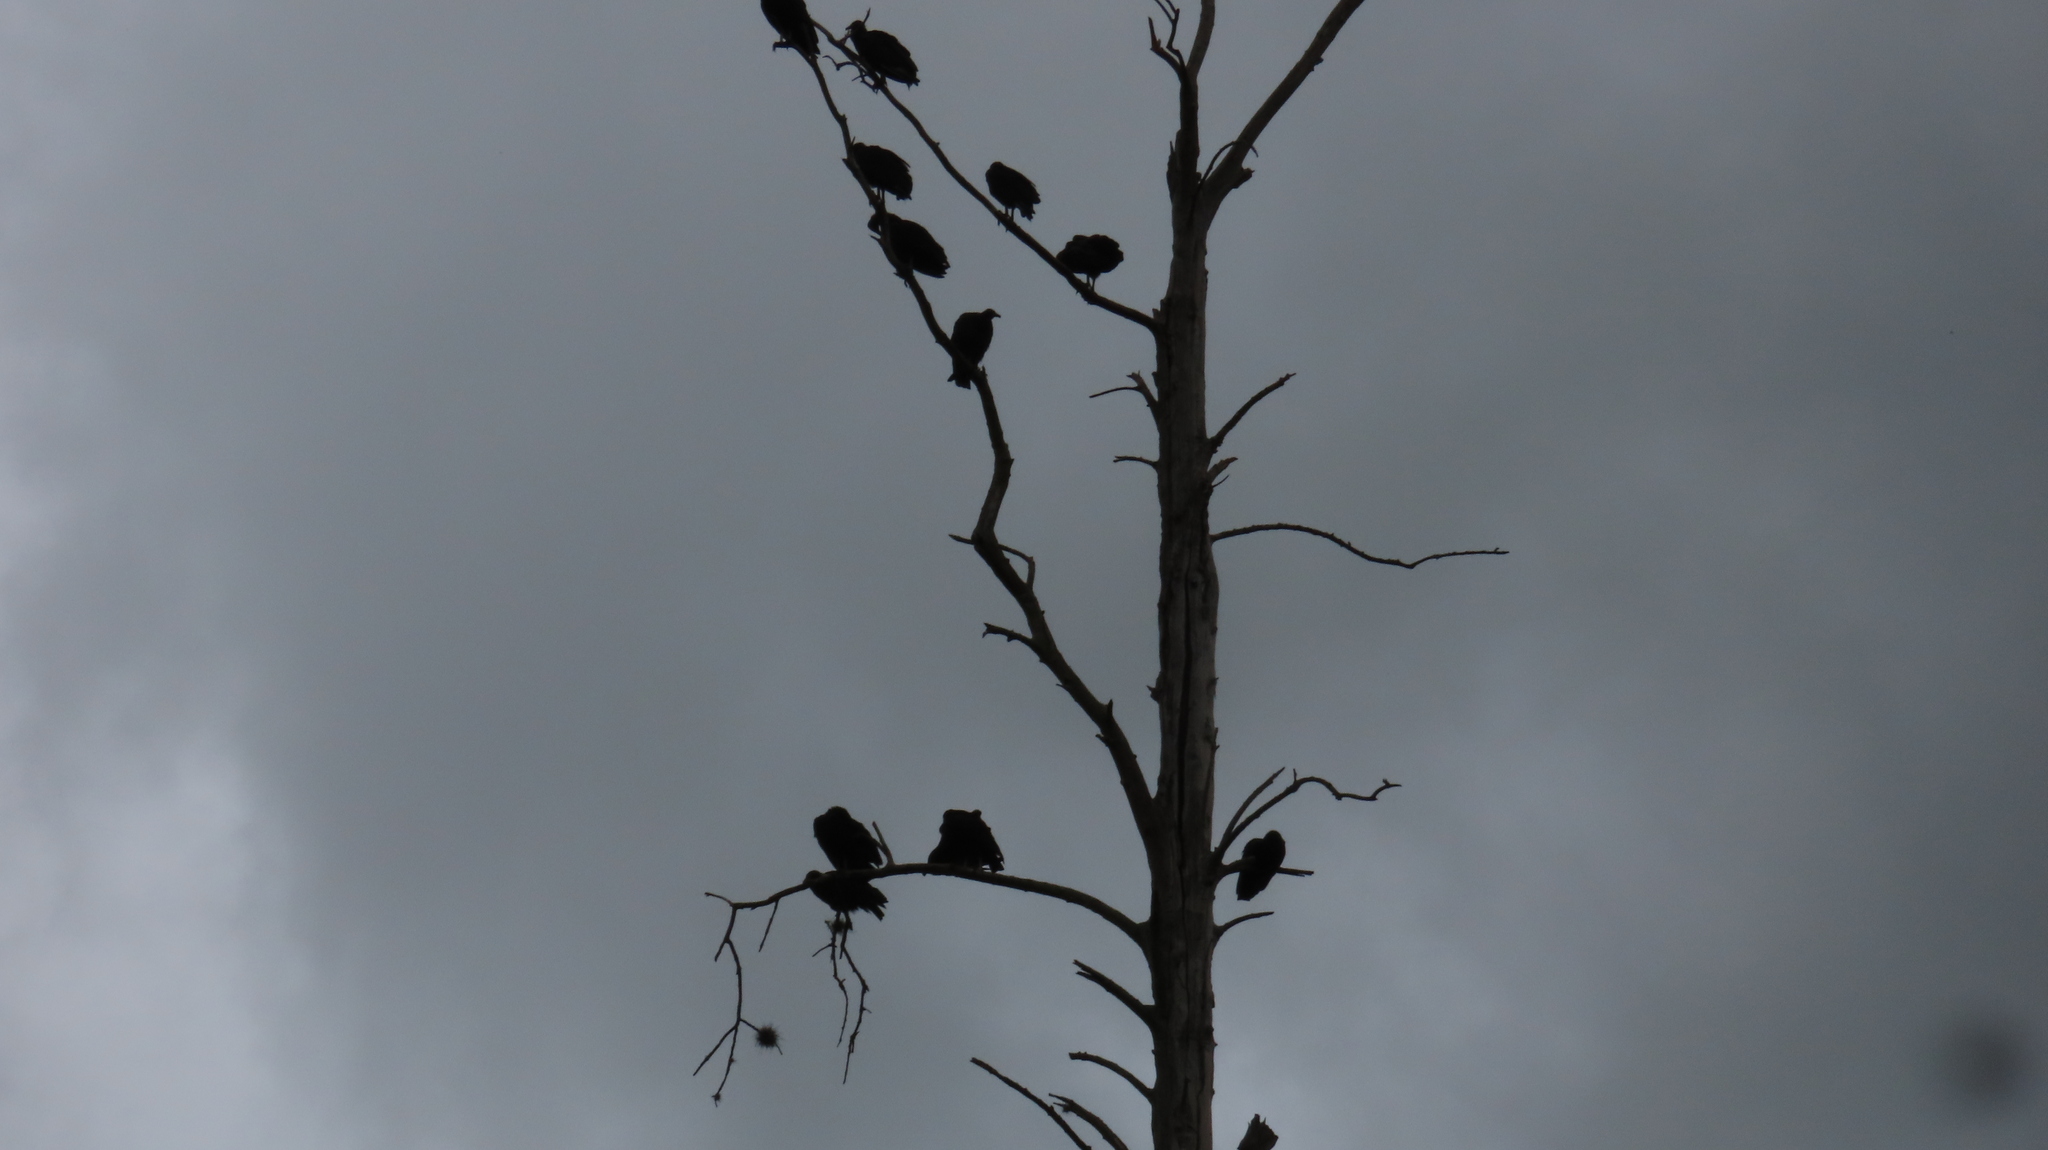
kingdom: Animalia
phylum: Chordata
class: Aves
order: Accipitriformes
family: Cathartidae
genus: Coragyps
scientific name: Coragyps atratus
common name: Black vulture
